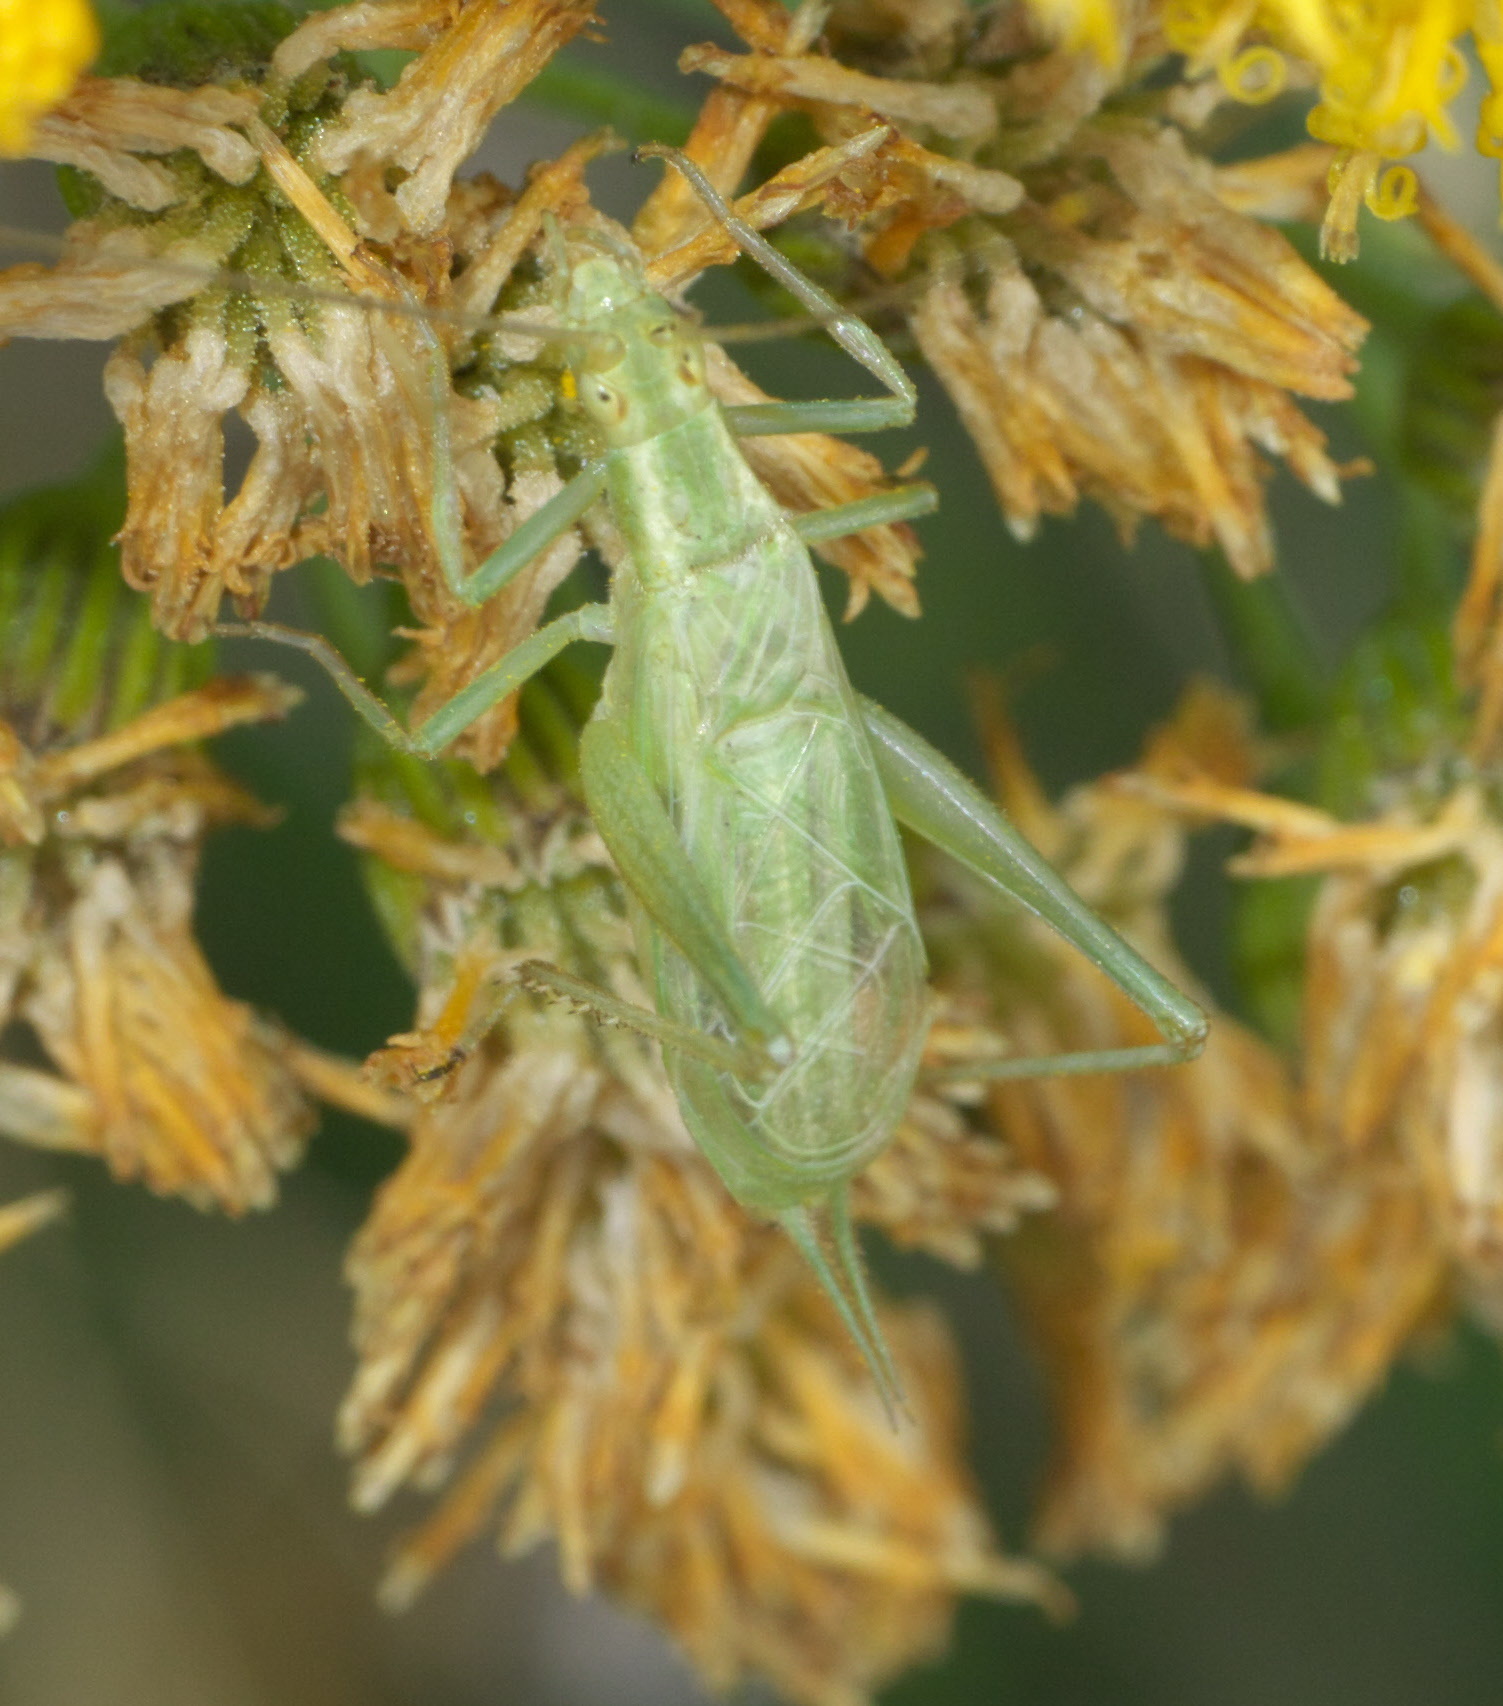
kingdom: Animalia
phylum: Arthropoda
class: Insecta
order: Orthoptera
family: Gryllidae
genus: Oecanthus
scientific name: Oecanthus quadripunctatus
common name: Four-spotted tree cricket
